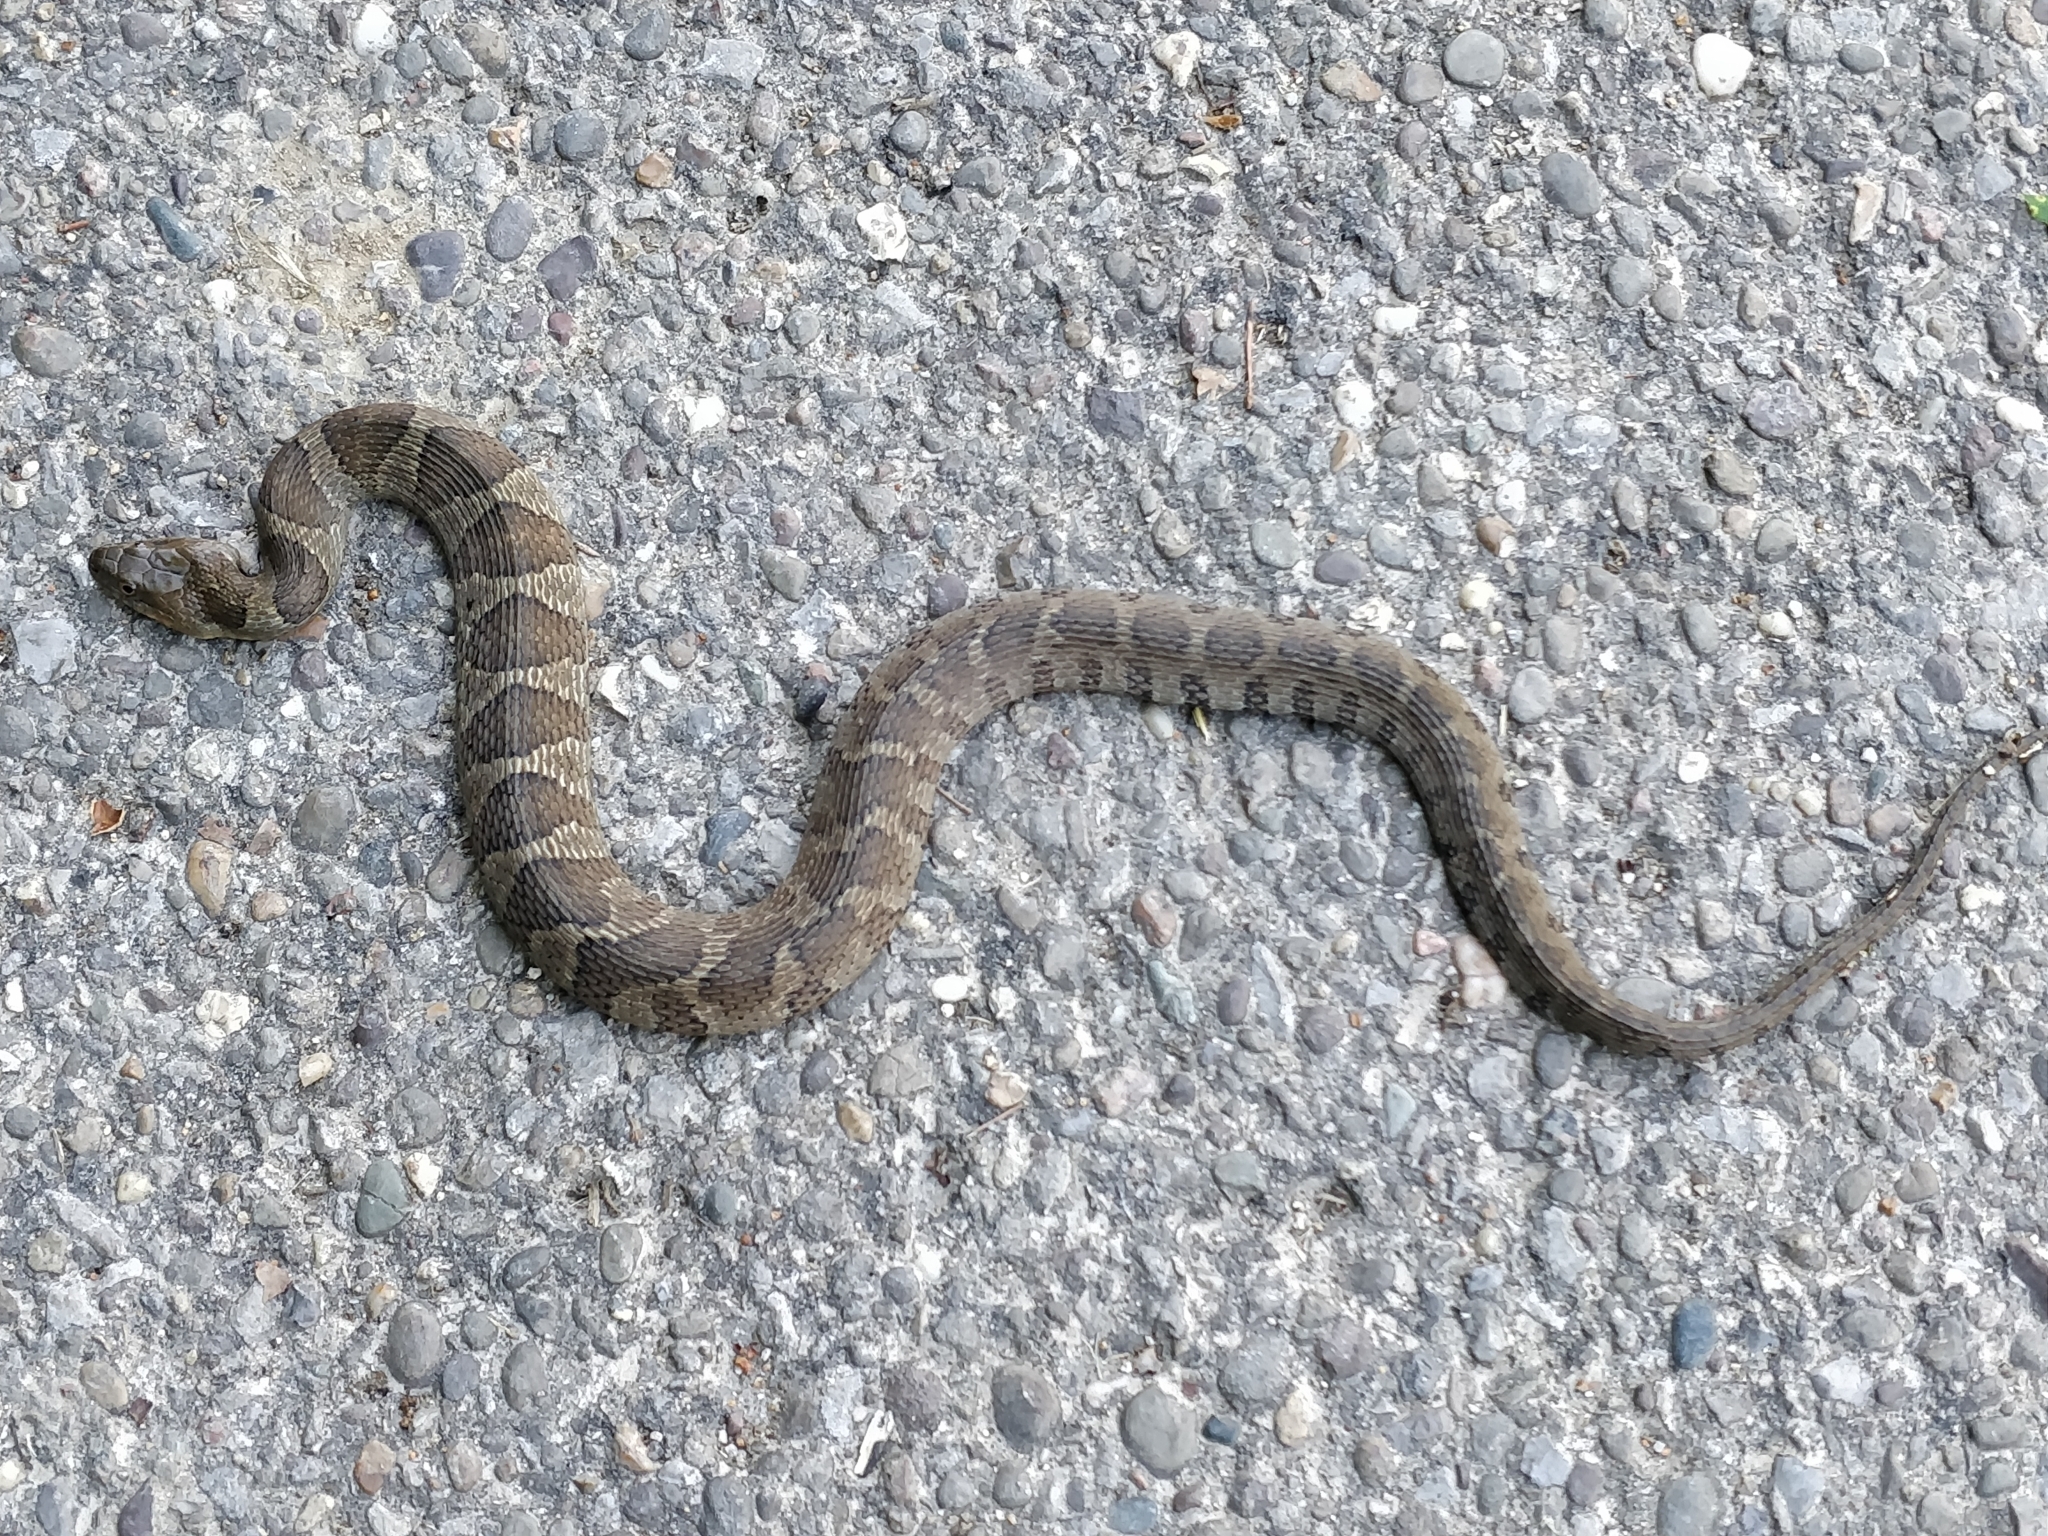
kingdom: Animalia
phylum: Chordata
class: Squamata
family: Colubridae
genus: Nerodia
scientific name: Nerodia sipedon
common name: Northern water snake
